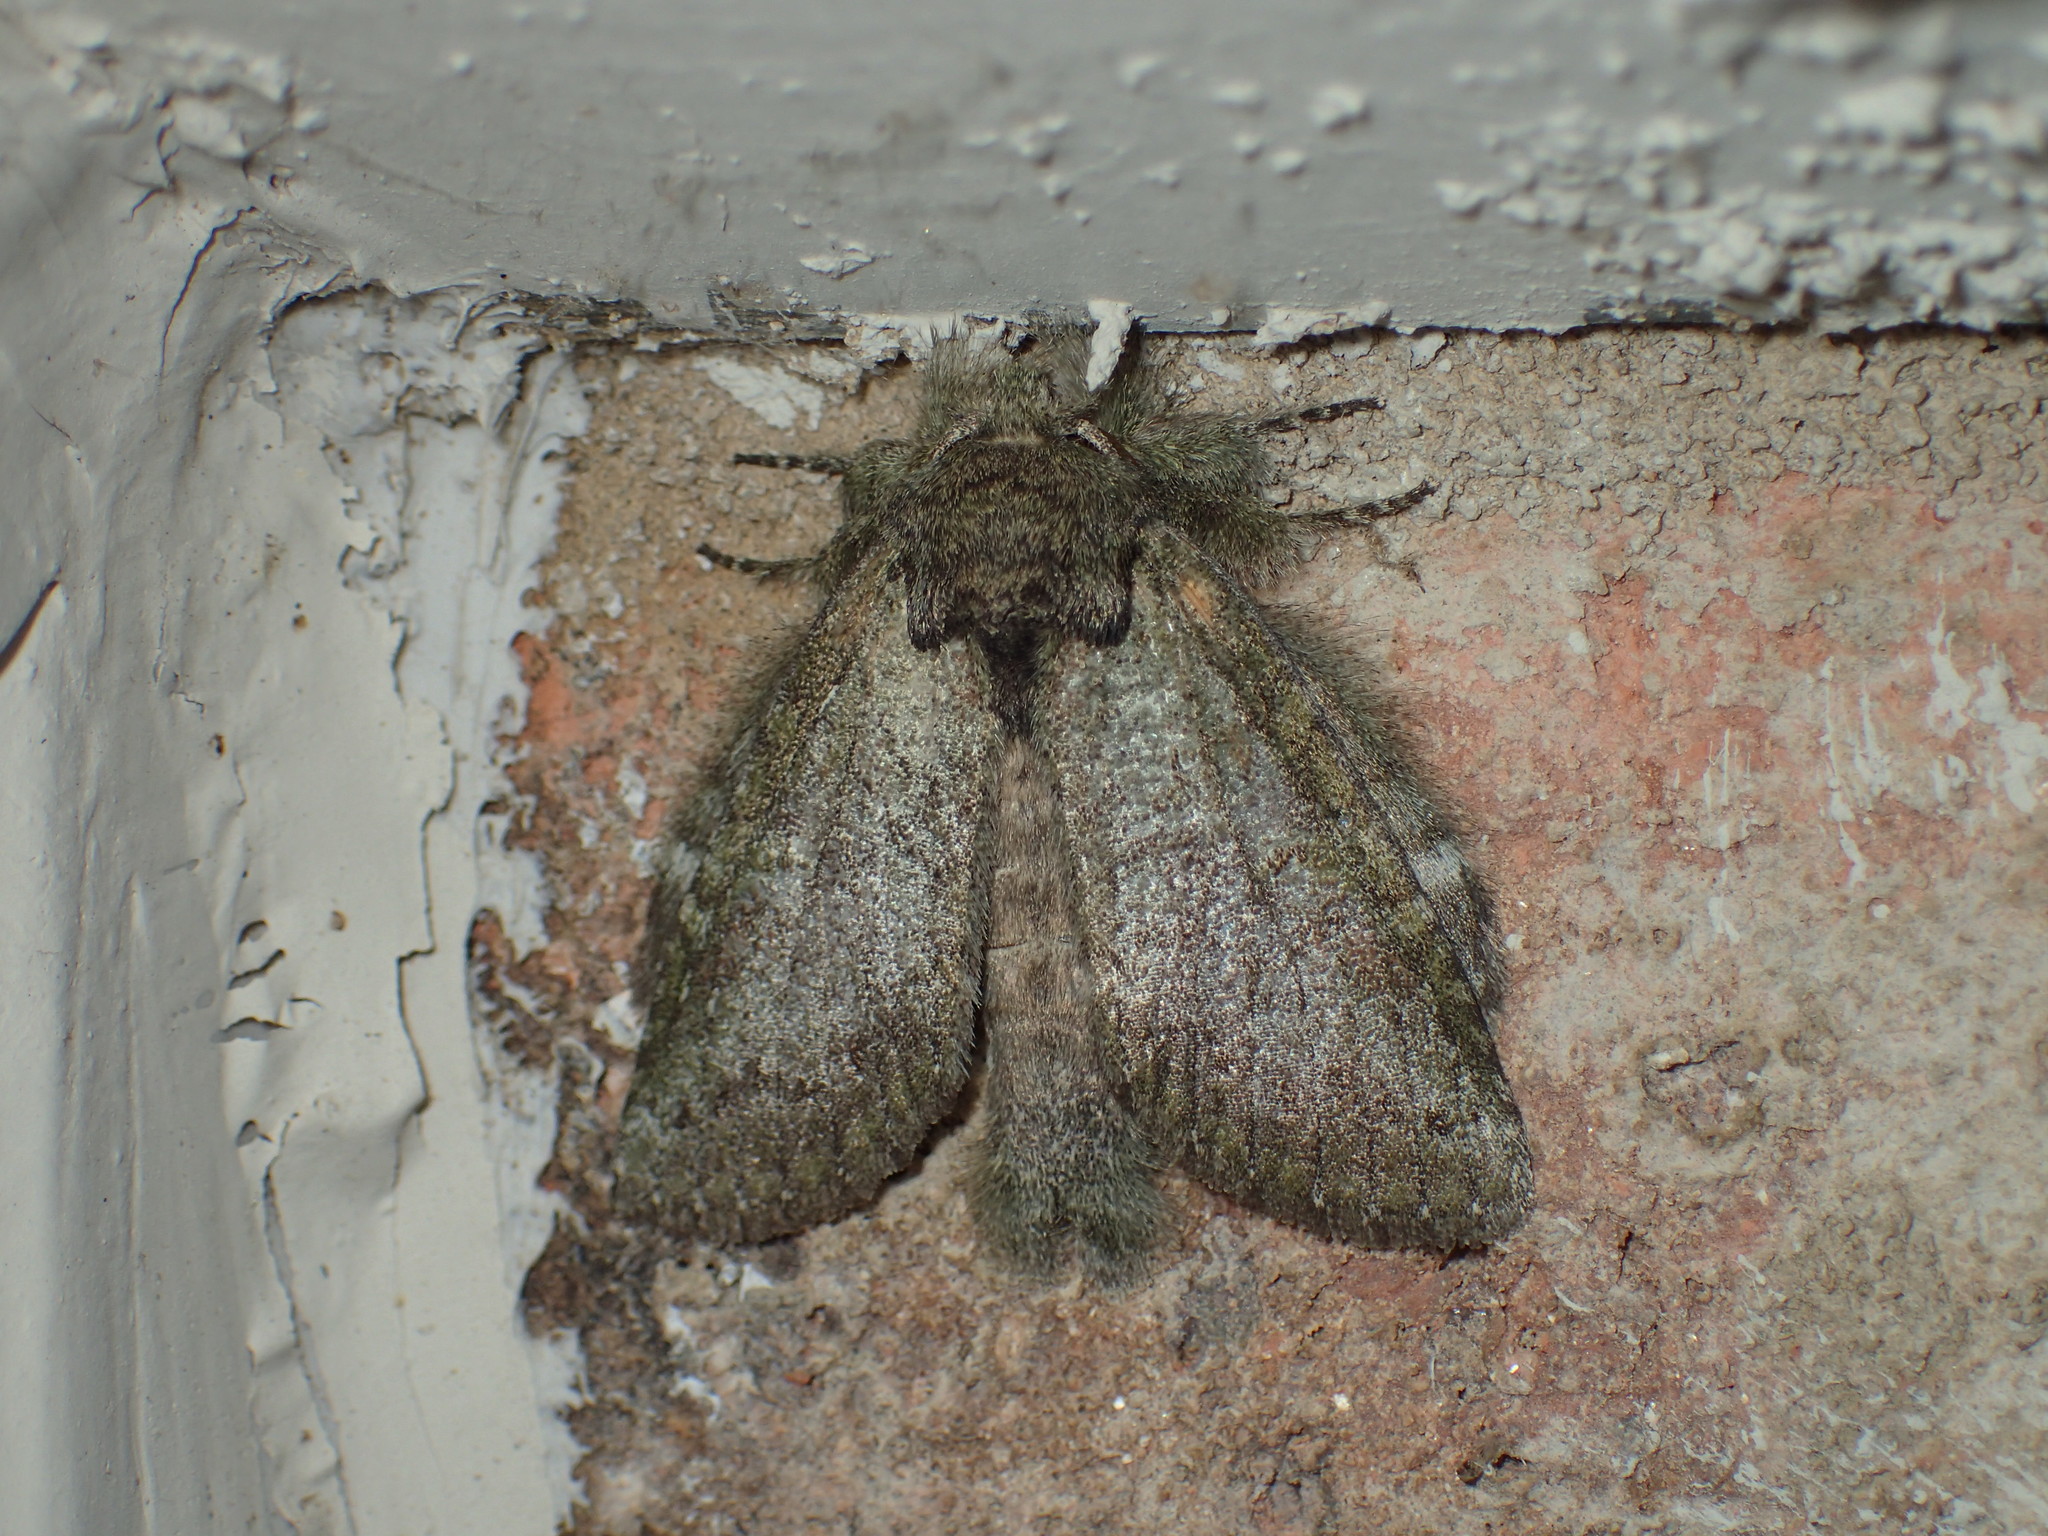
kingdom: Animalia
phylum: Arthropoda
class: Insecta
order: Lepidoptera
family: Notodontidae
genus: Disphragis
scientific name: Disphragis Cecrita guttivitta
